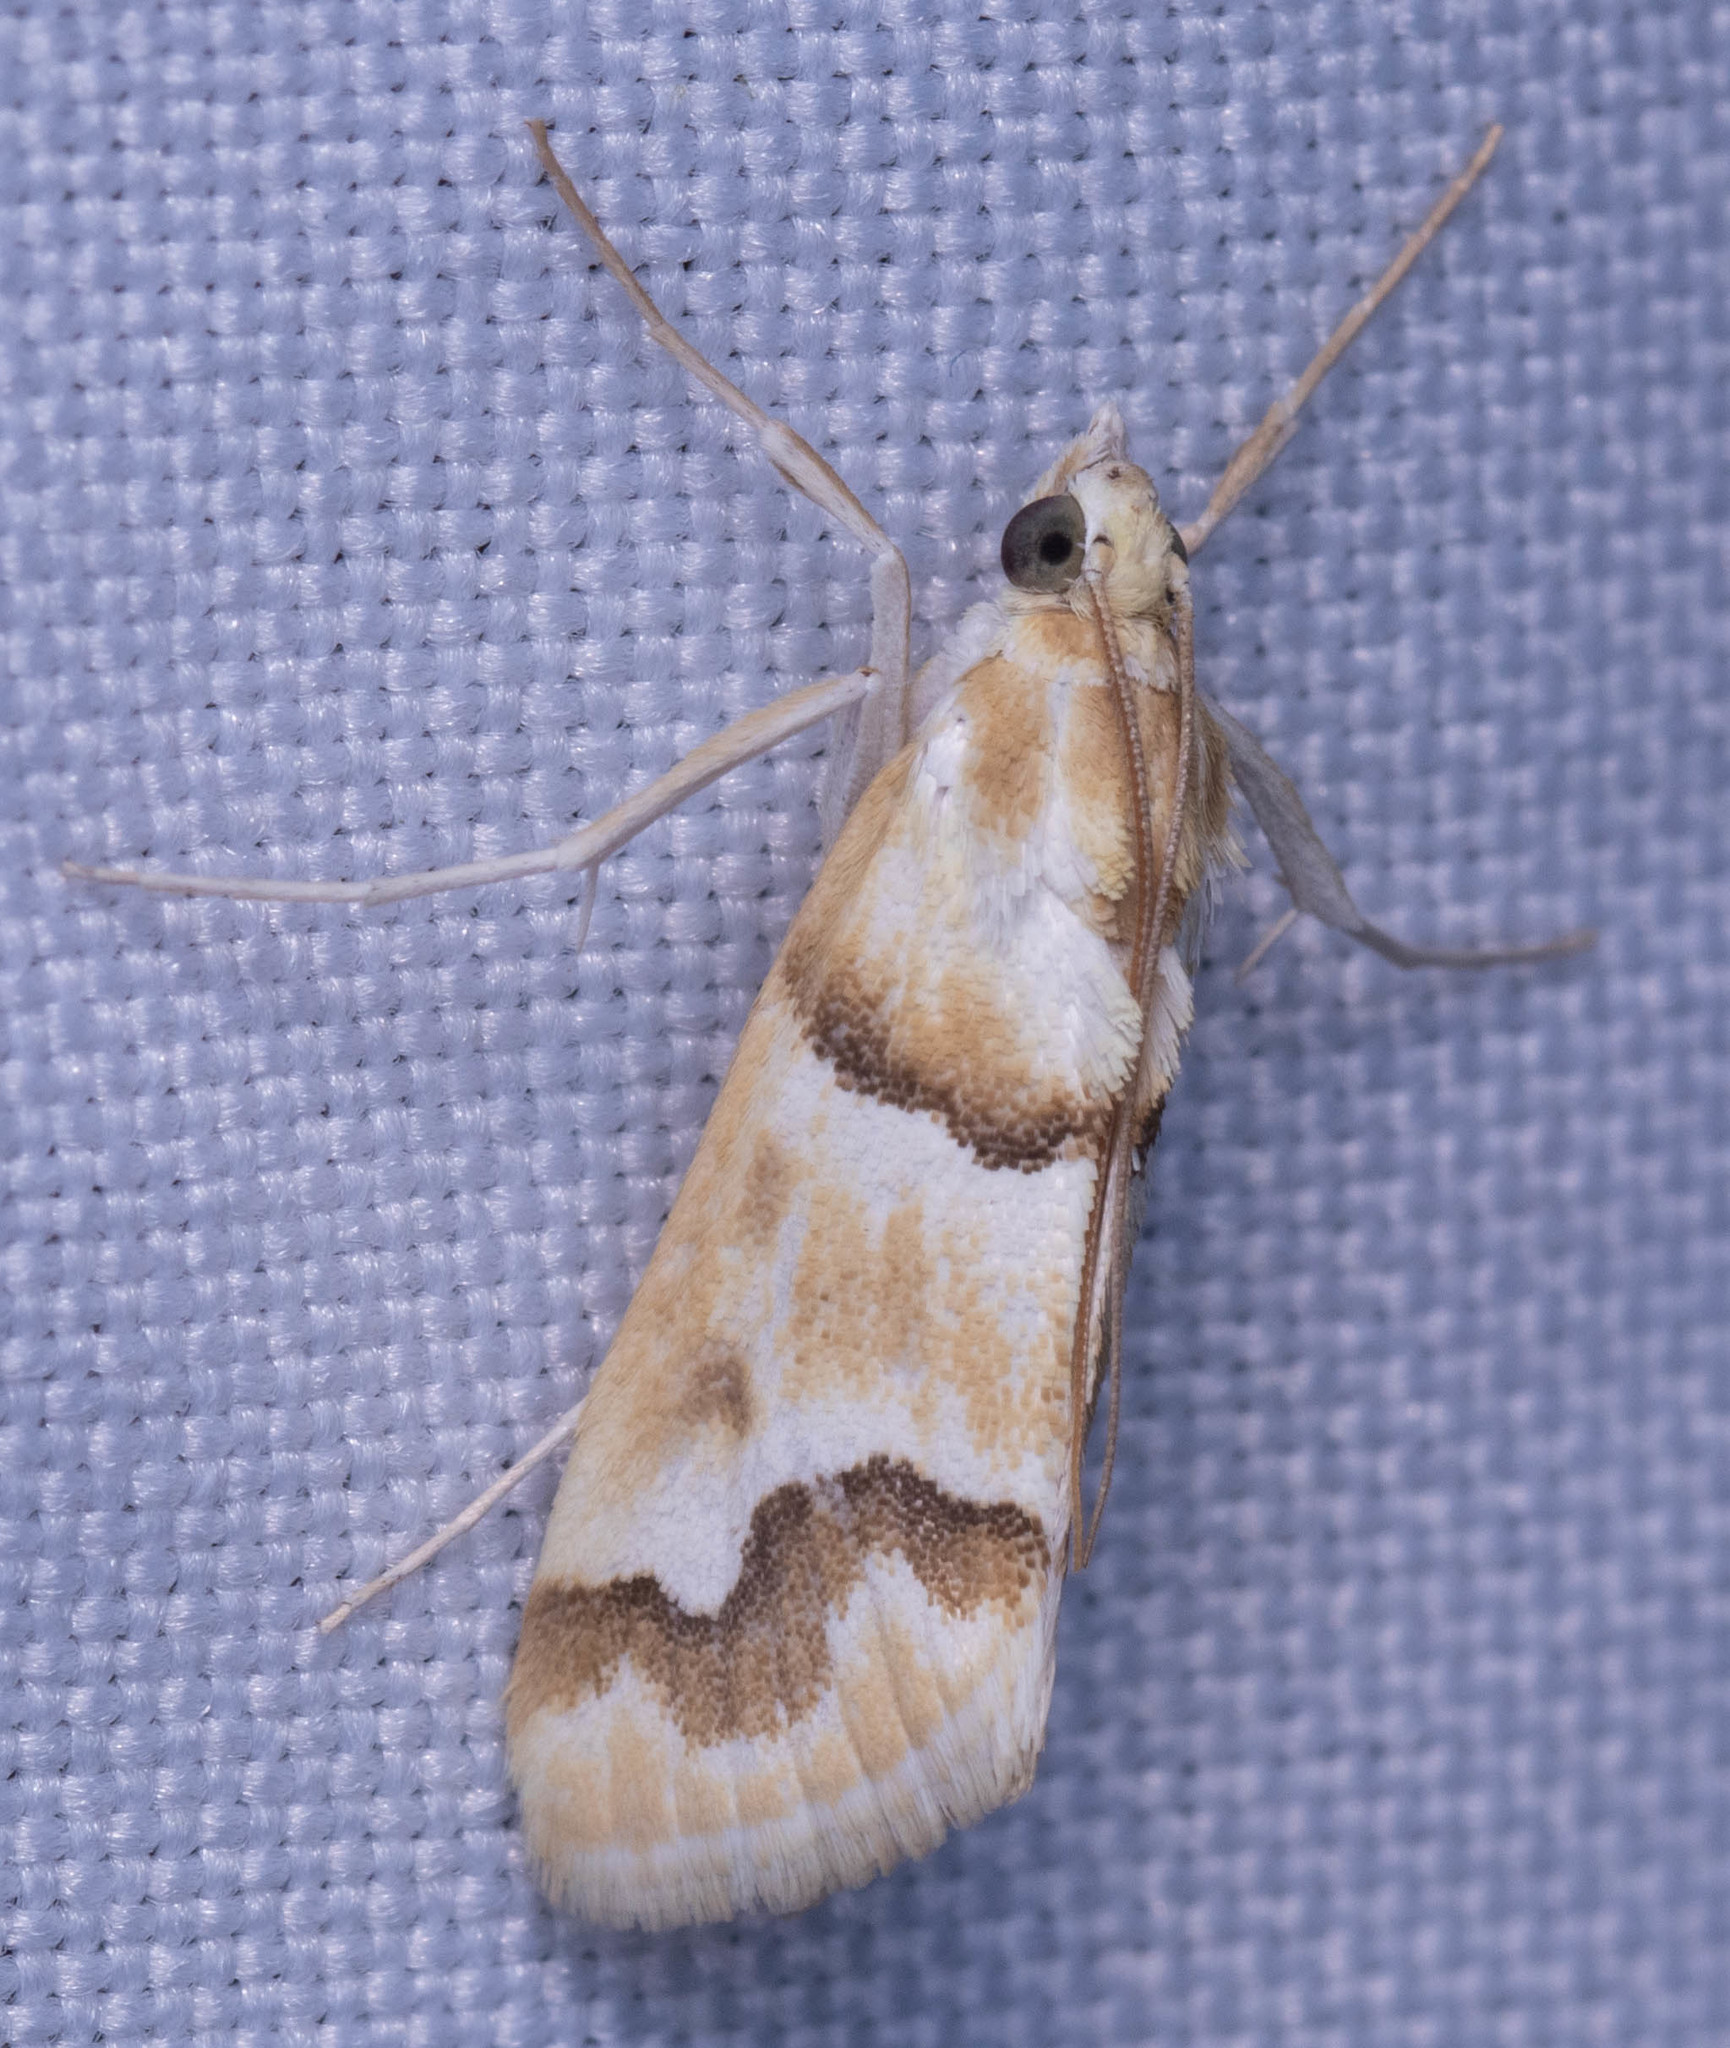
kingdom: Animalia
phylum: Arthropoda
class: Insecta
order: Lepidoptera
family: Crambidae
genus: Pseudoschinia
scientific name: Pseudoschinia elautalis
